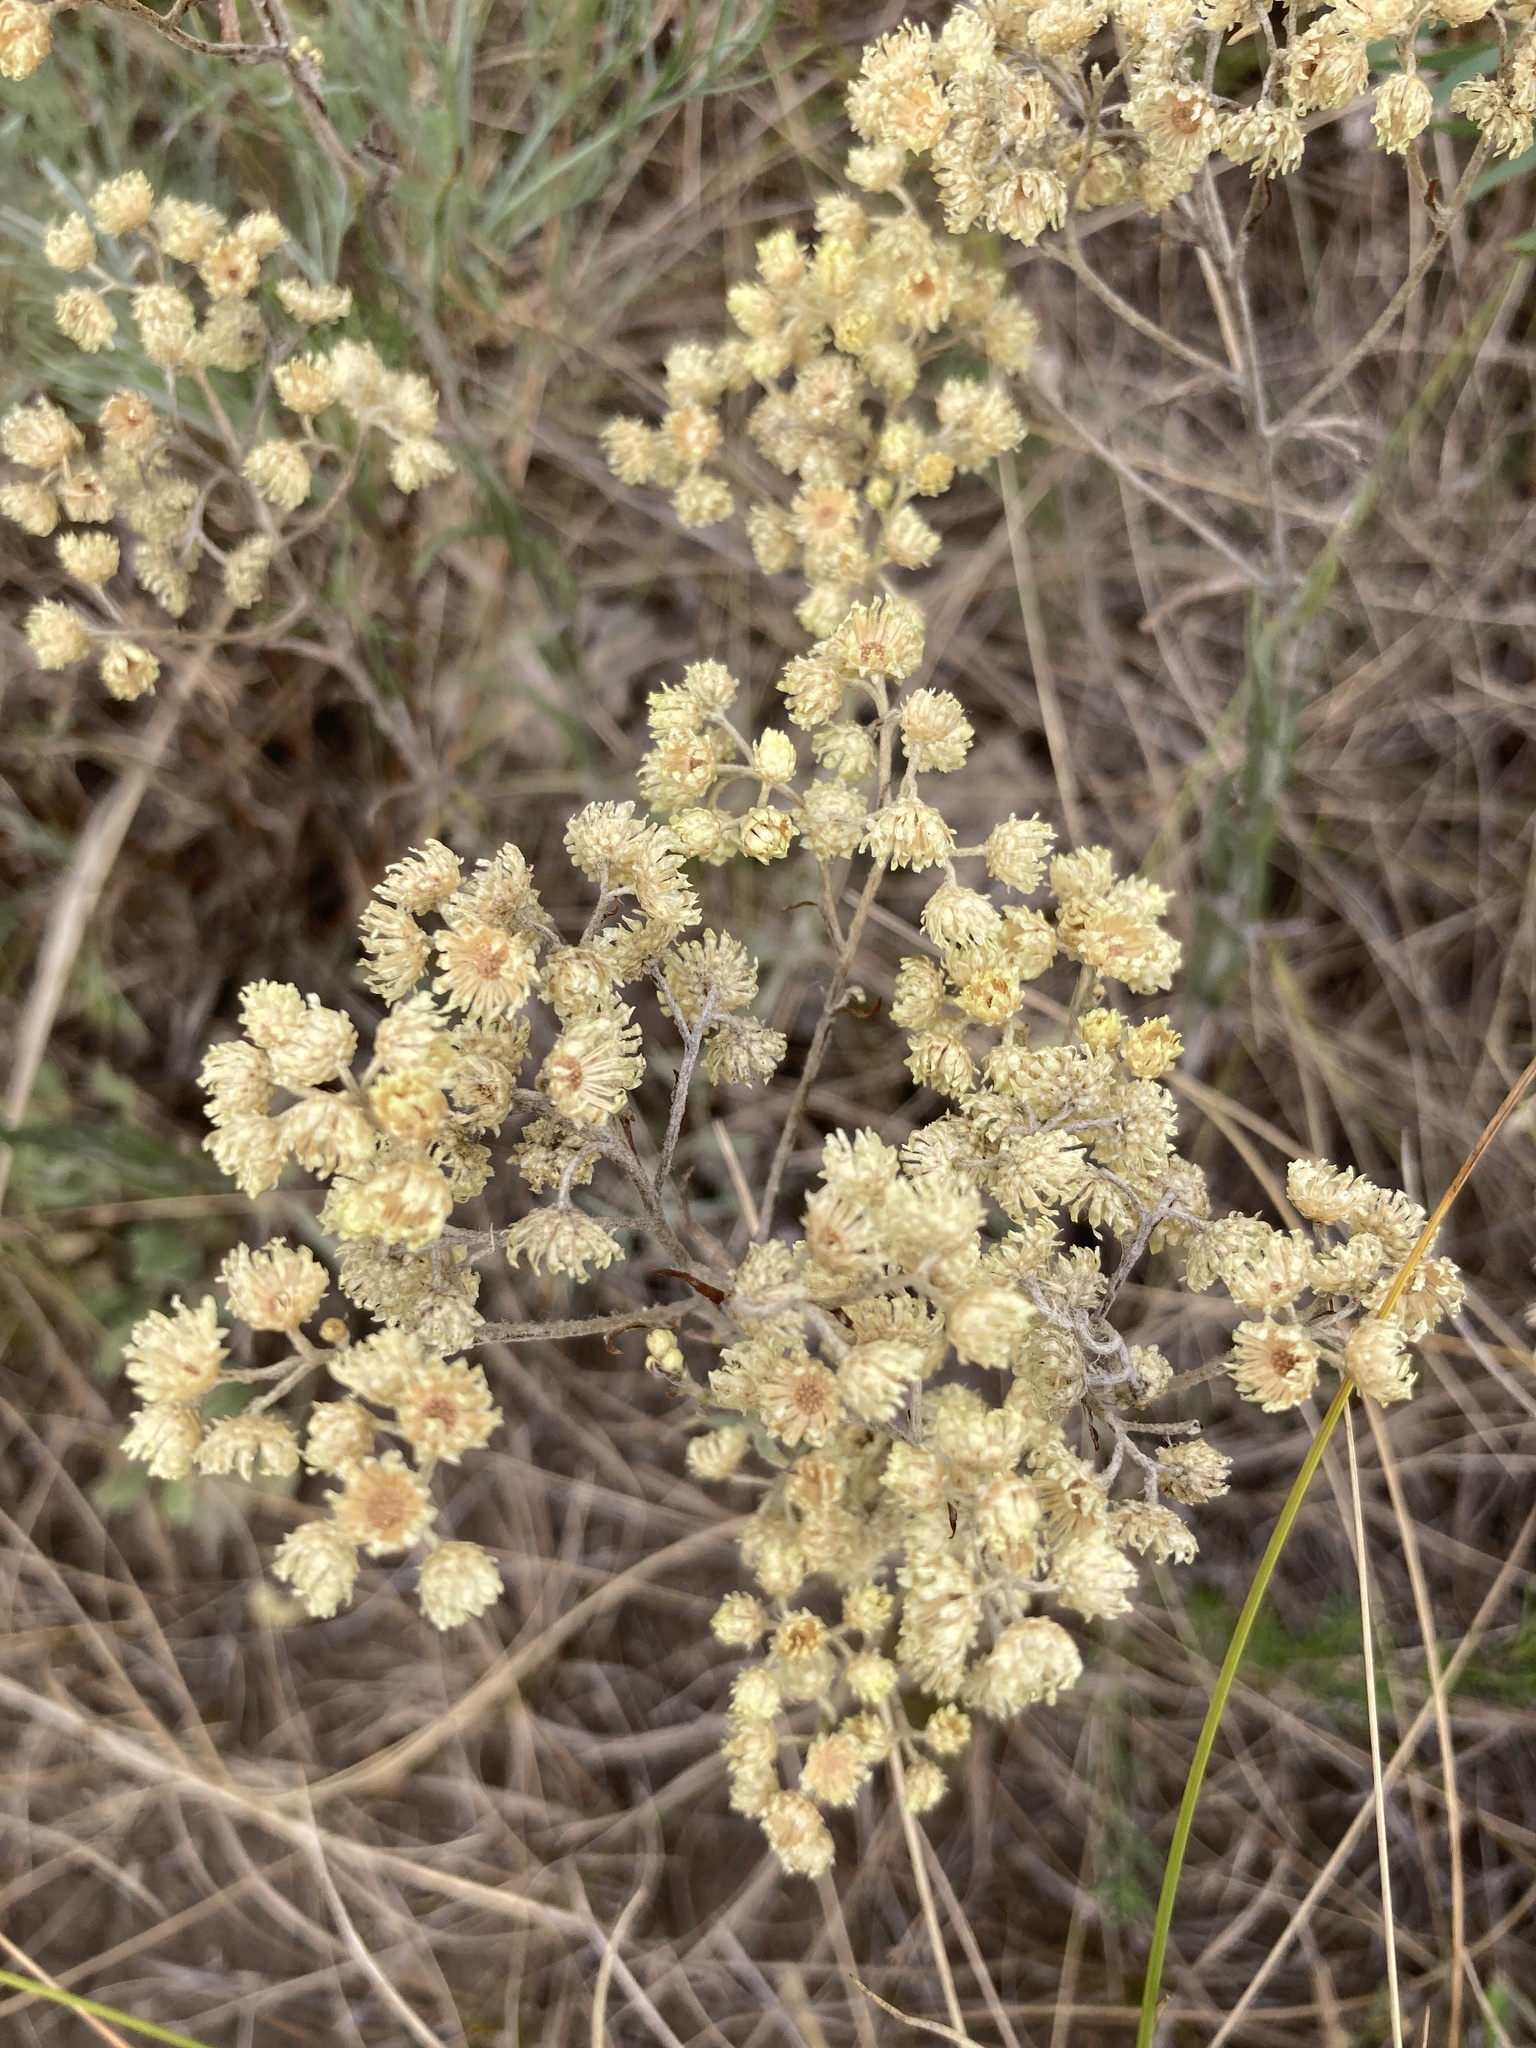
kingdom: Plantae
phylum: Tracheophyta
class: Magnoliopsida
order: Asterales
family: Asteraceae
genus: Helichrysum
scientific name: Helichrysum arenarium
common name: Strawflower
